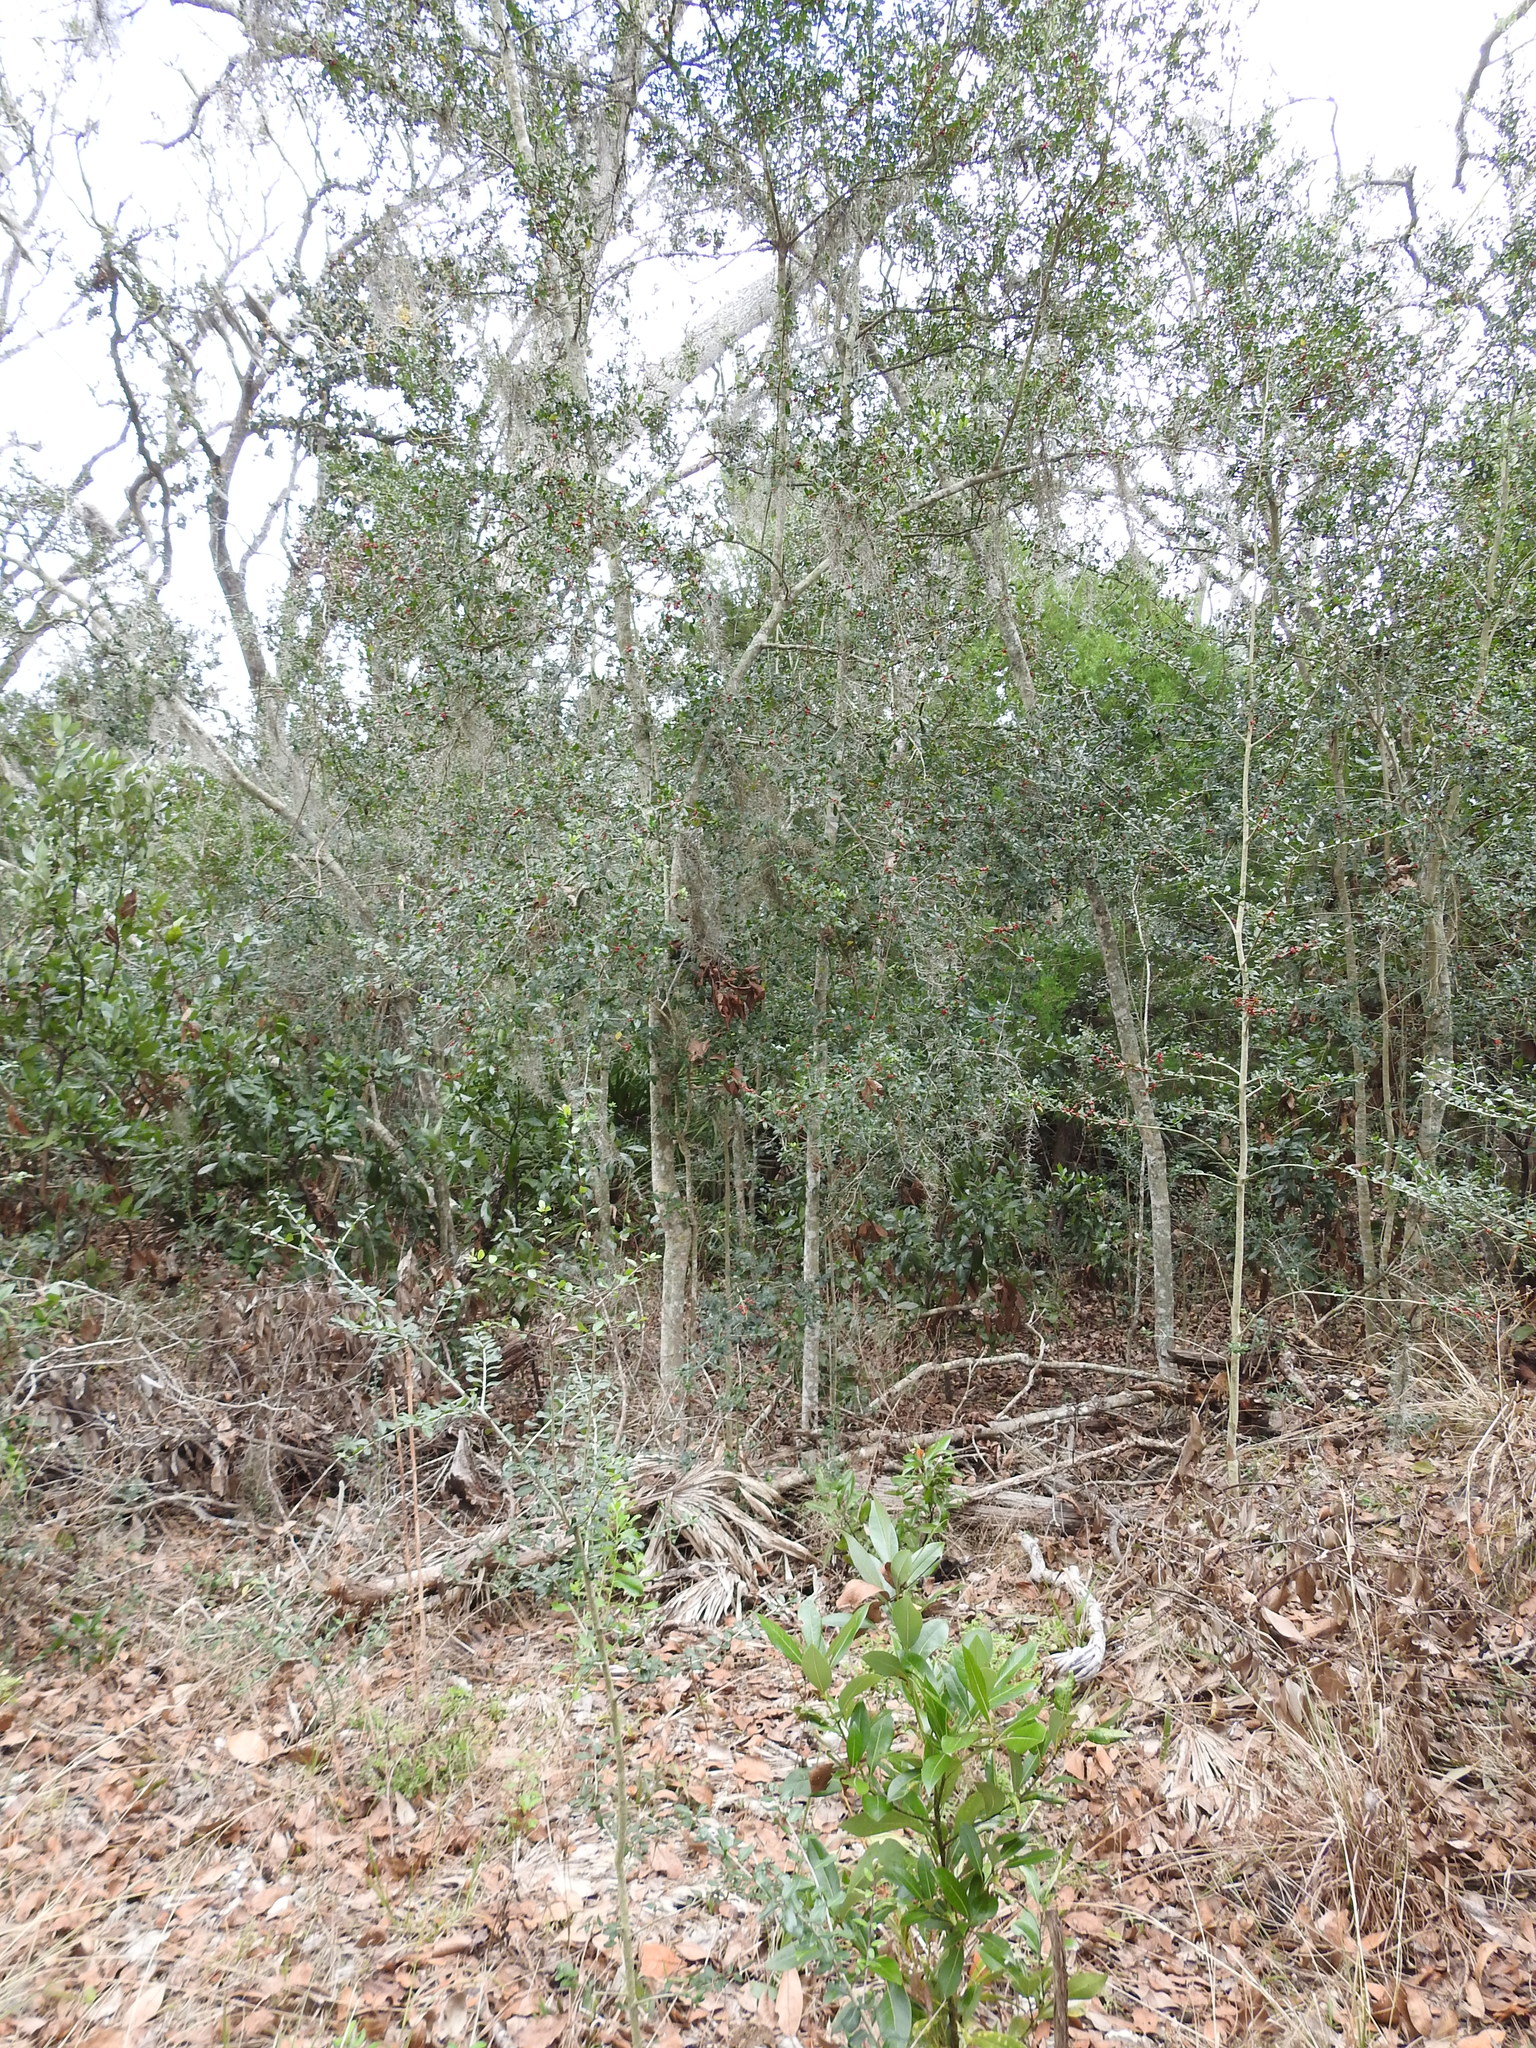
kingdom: Plantae
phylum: Tracheophyta
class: Magnoliopsida
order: Aquifoliales
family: Aquifoliaceae
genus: Ilex
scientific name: Ilex vomitoria
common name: Yaupon holly
